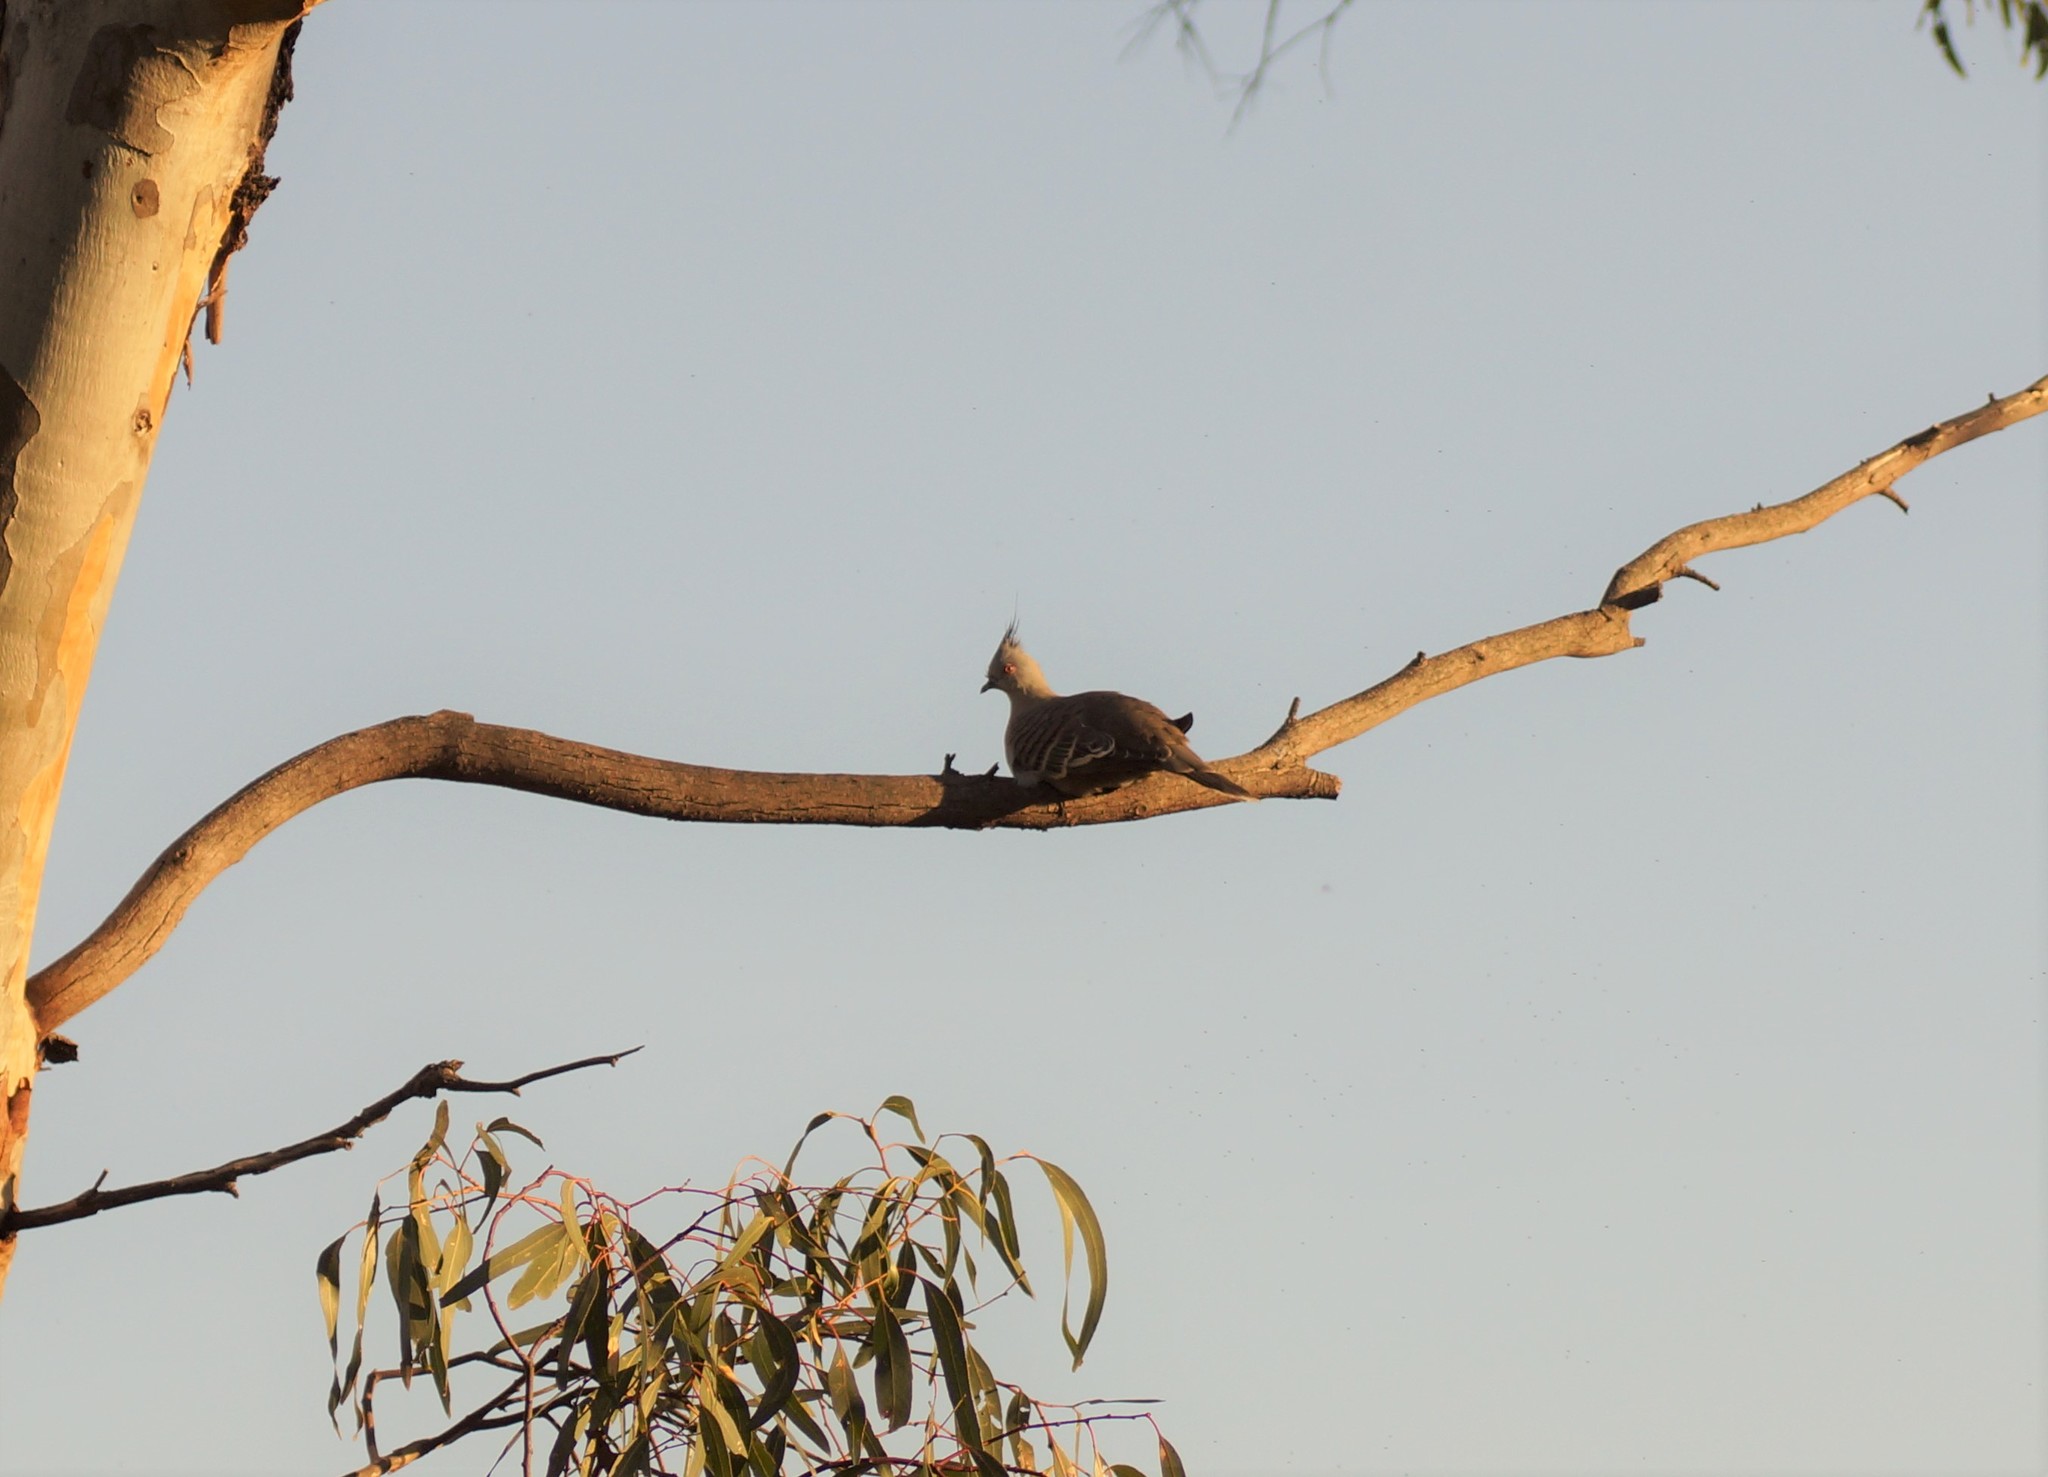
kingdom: Animalia
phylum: Chordata
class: Aves
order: Columbiformes
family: Columbidae
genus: Ocyphaps
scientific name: Ocyphaps lophotes
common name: Crested pigeon
